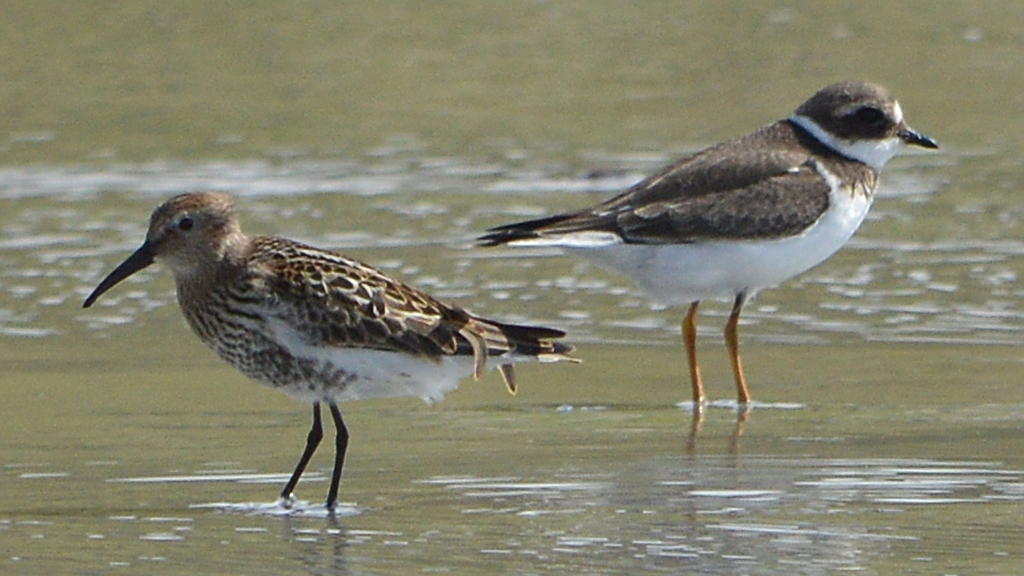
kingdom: Animalia
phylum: Chordata
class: Aves
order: Charadriiformes
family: Charadriidae
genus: Charadrius
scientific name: Charadrius hiaticula
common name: Common ringed plover
